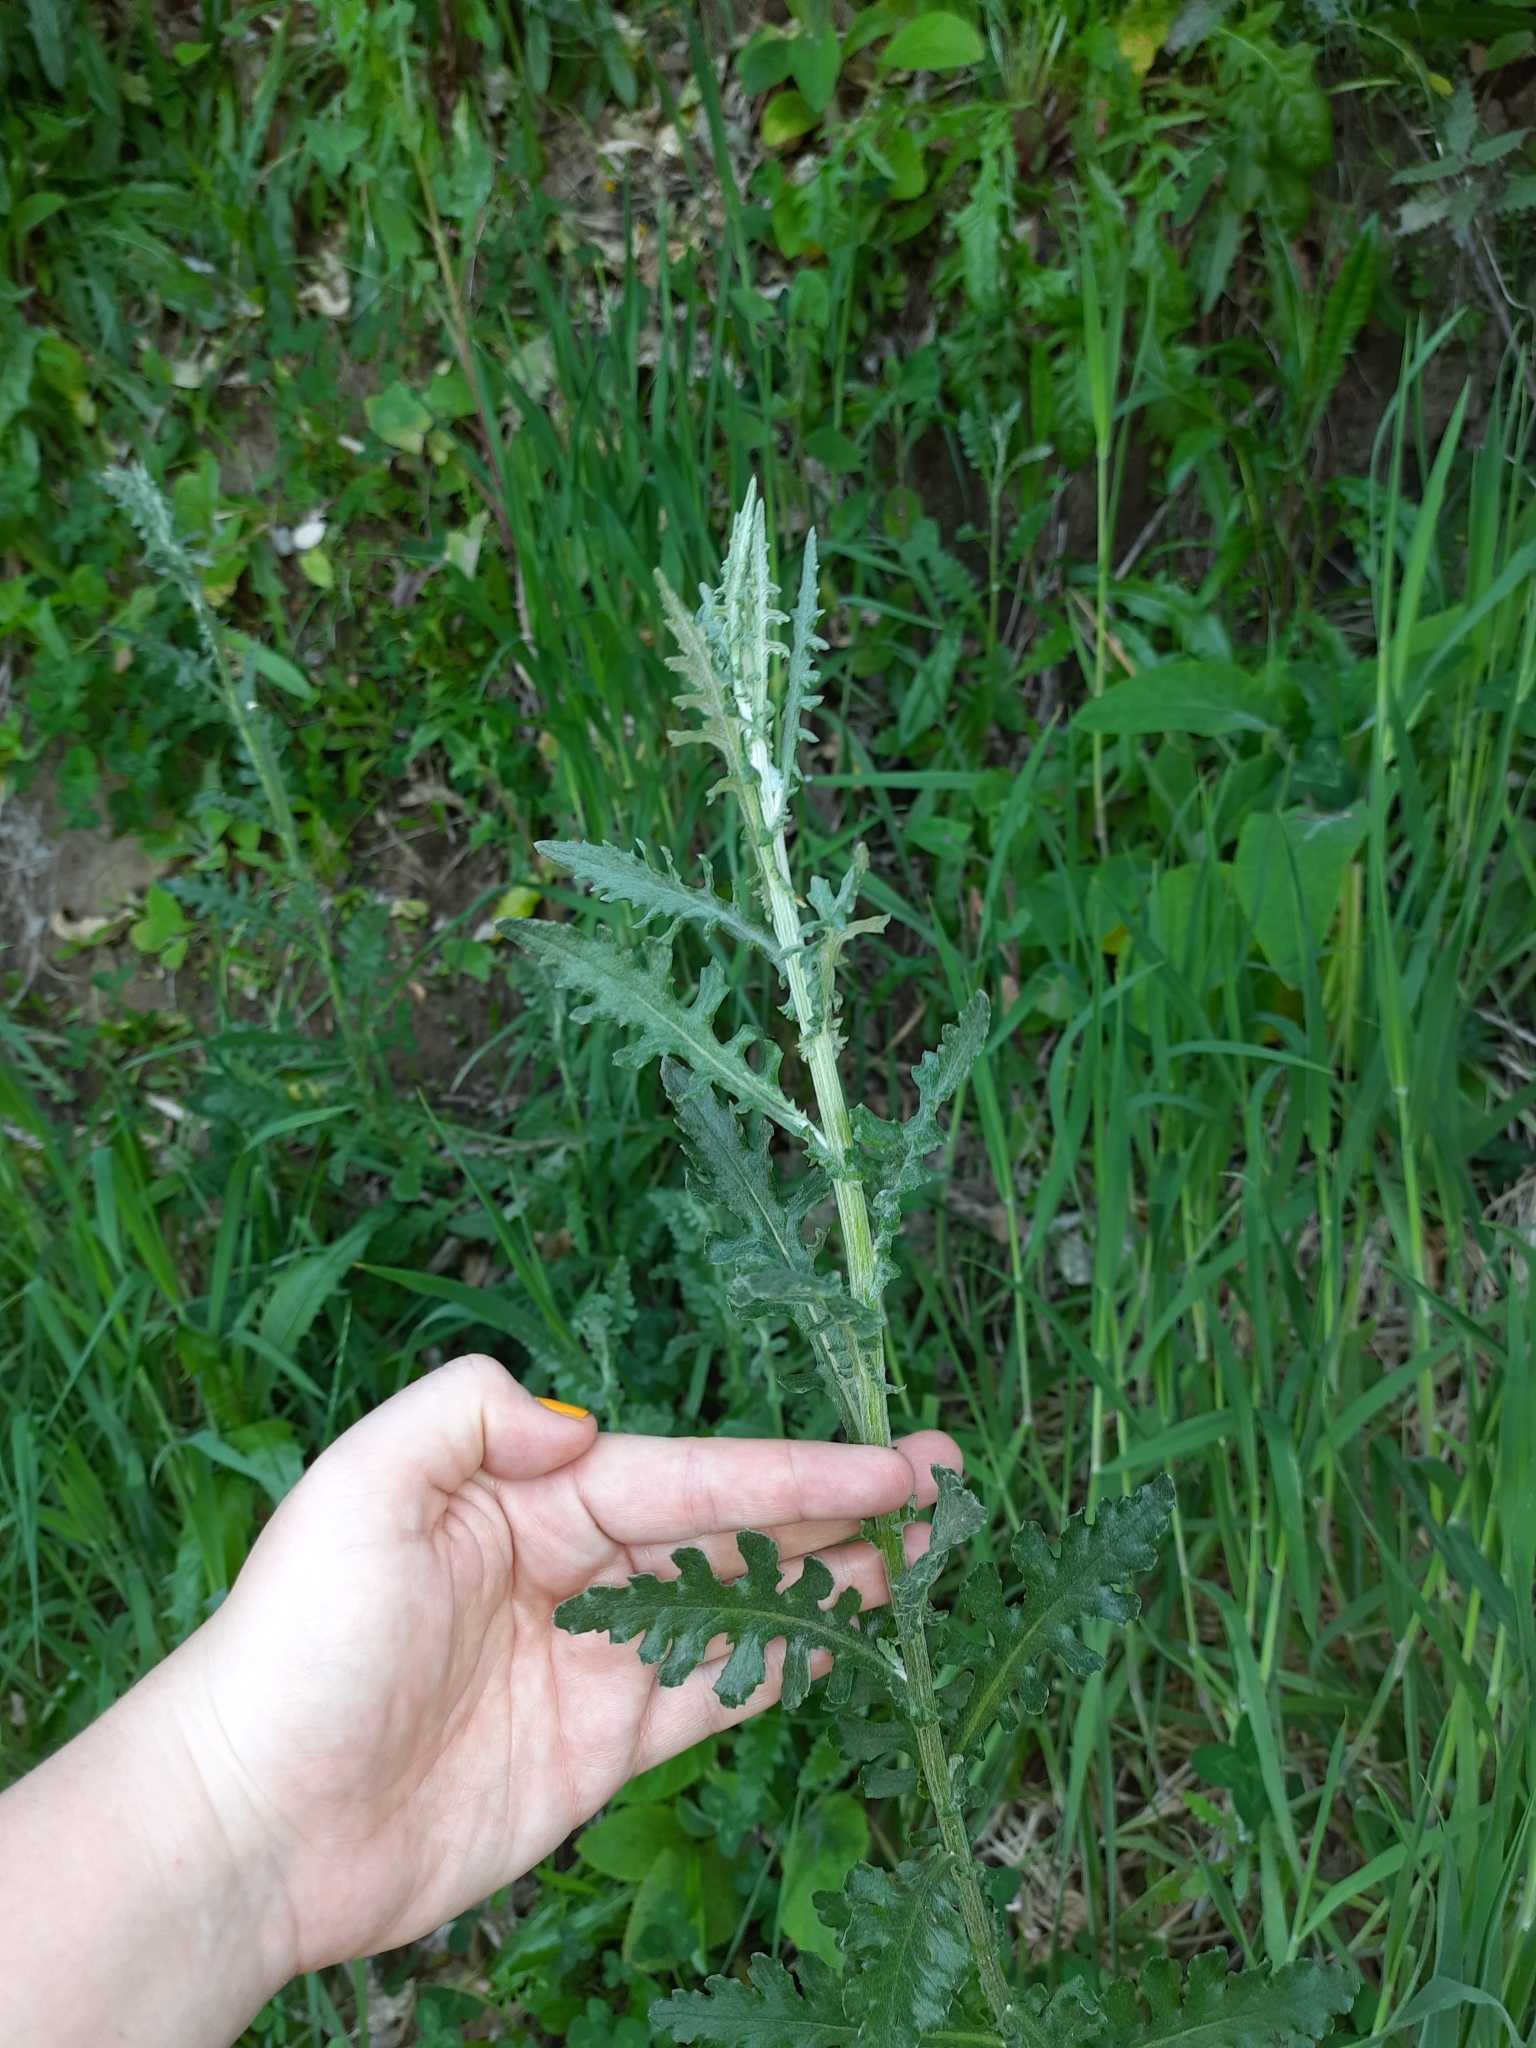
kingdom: Plantae
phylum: Tracheophyta
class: Magnoliopsida
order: Asterales
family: Asteraceae
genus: Senecio
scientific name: Senecio glomeratus
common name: Cutleaf burnweed
